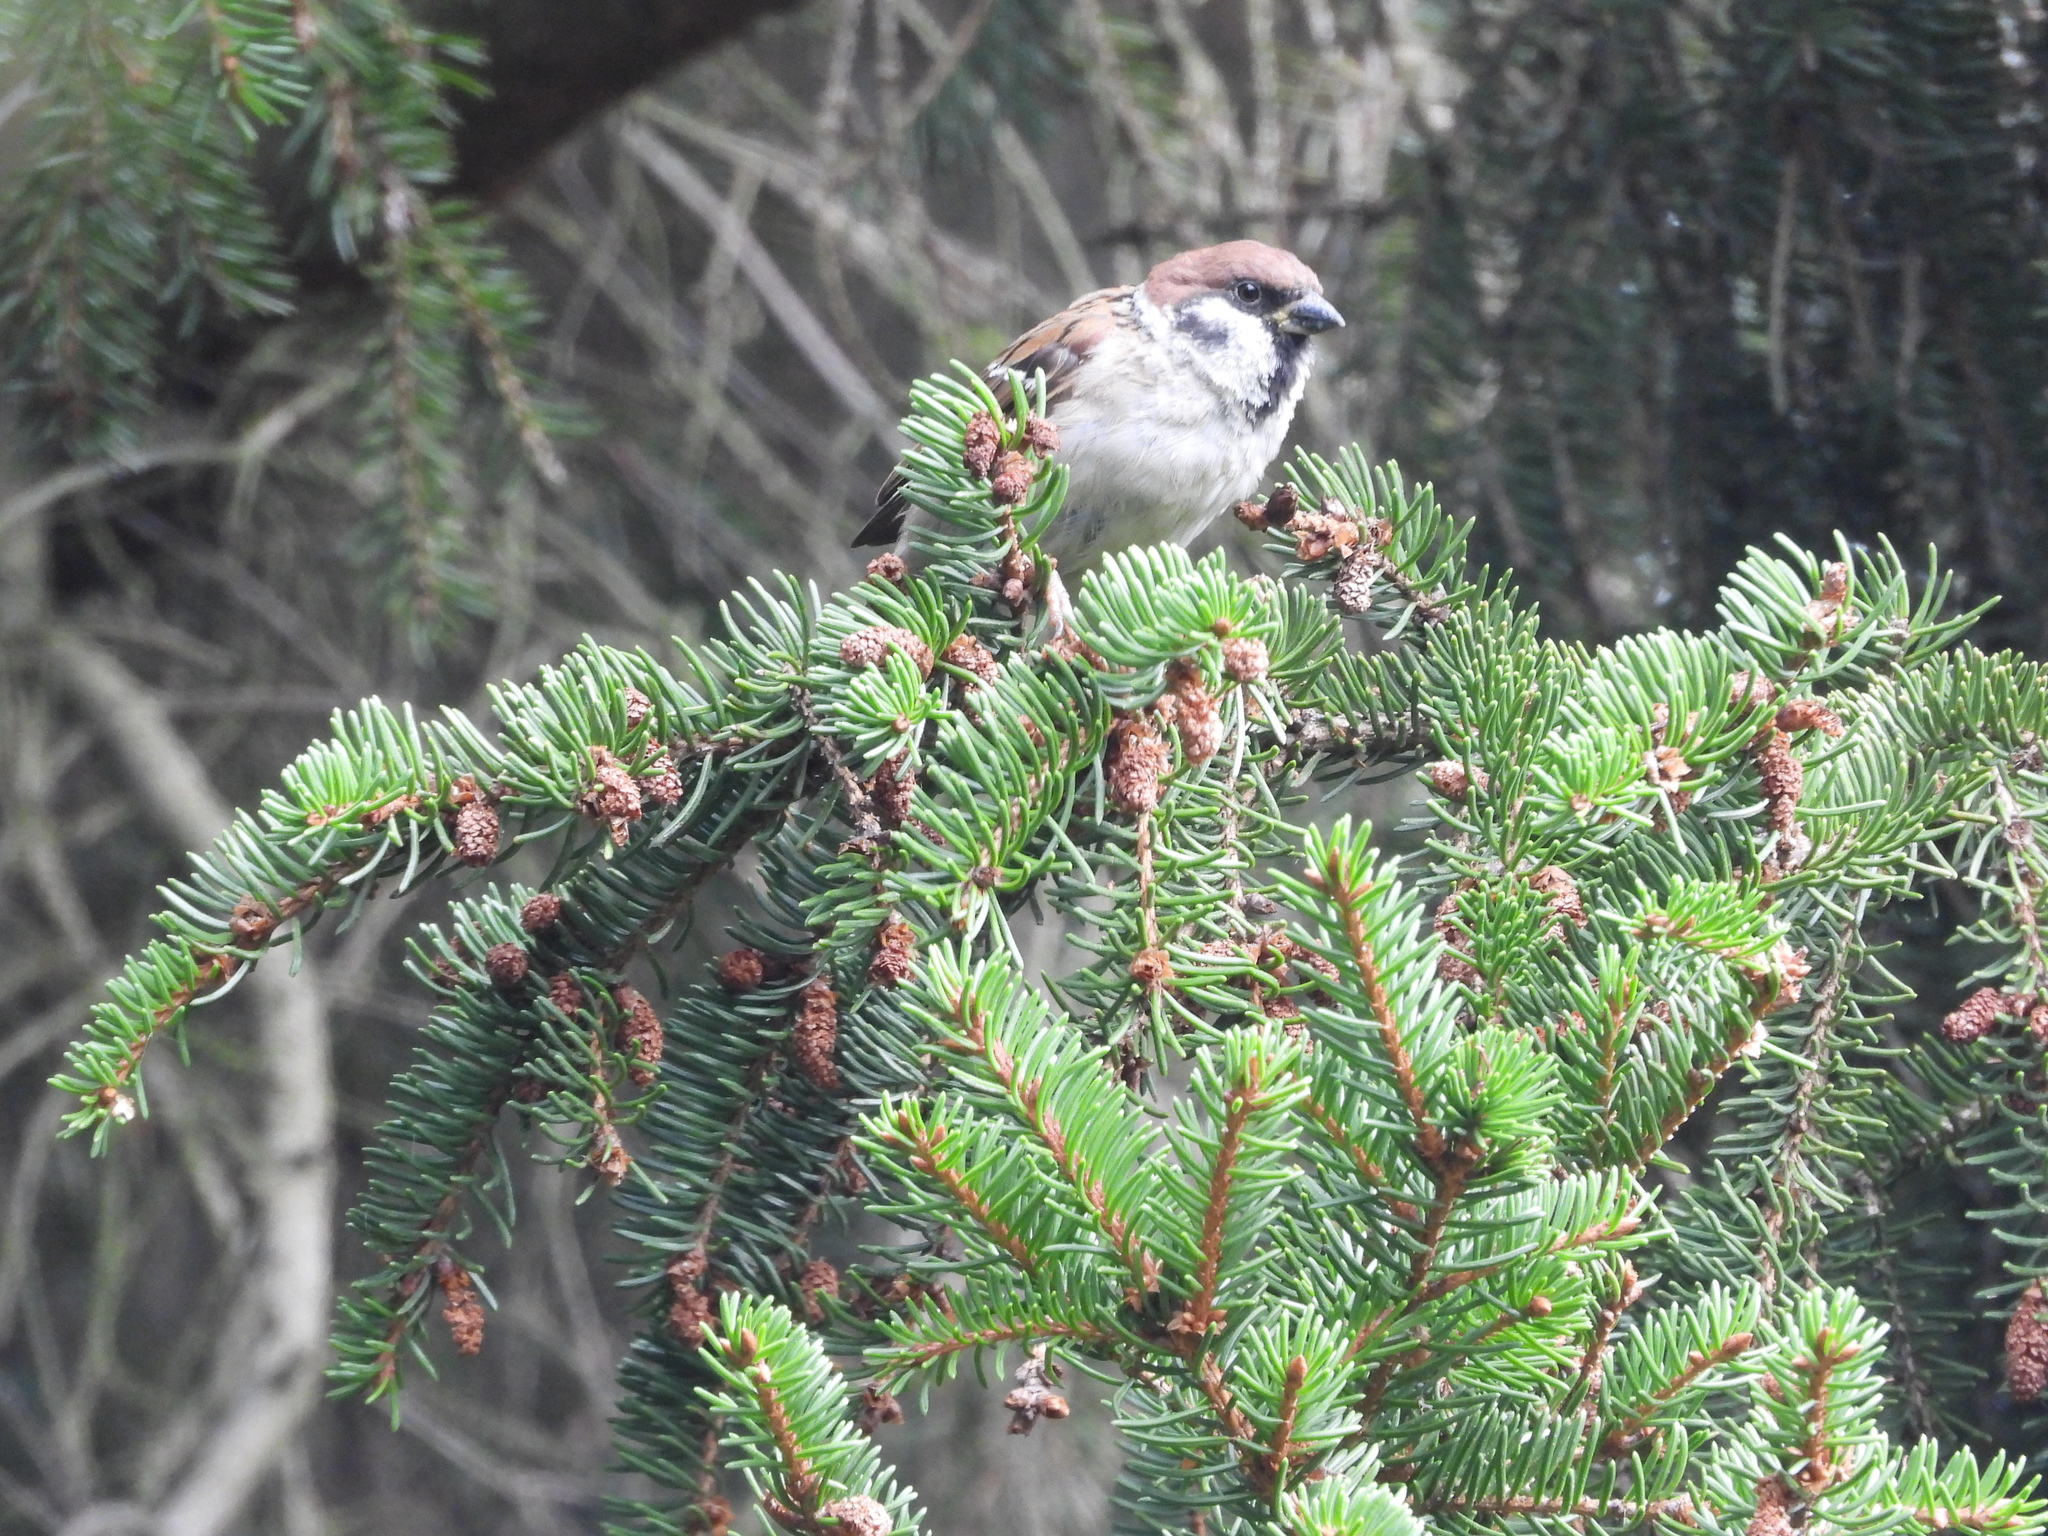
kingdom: Animalia
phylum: Chordata
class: Aves
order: Passeriformes
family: Passeridae
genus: Passer
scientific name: Passer montanus
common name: Eurasian tree sparrow
